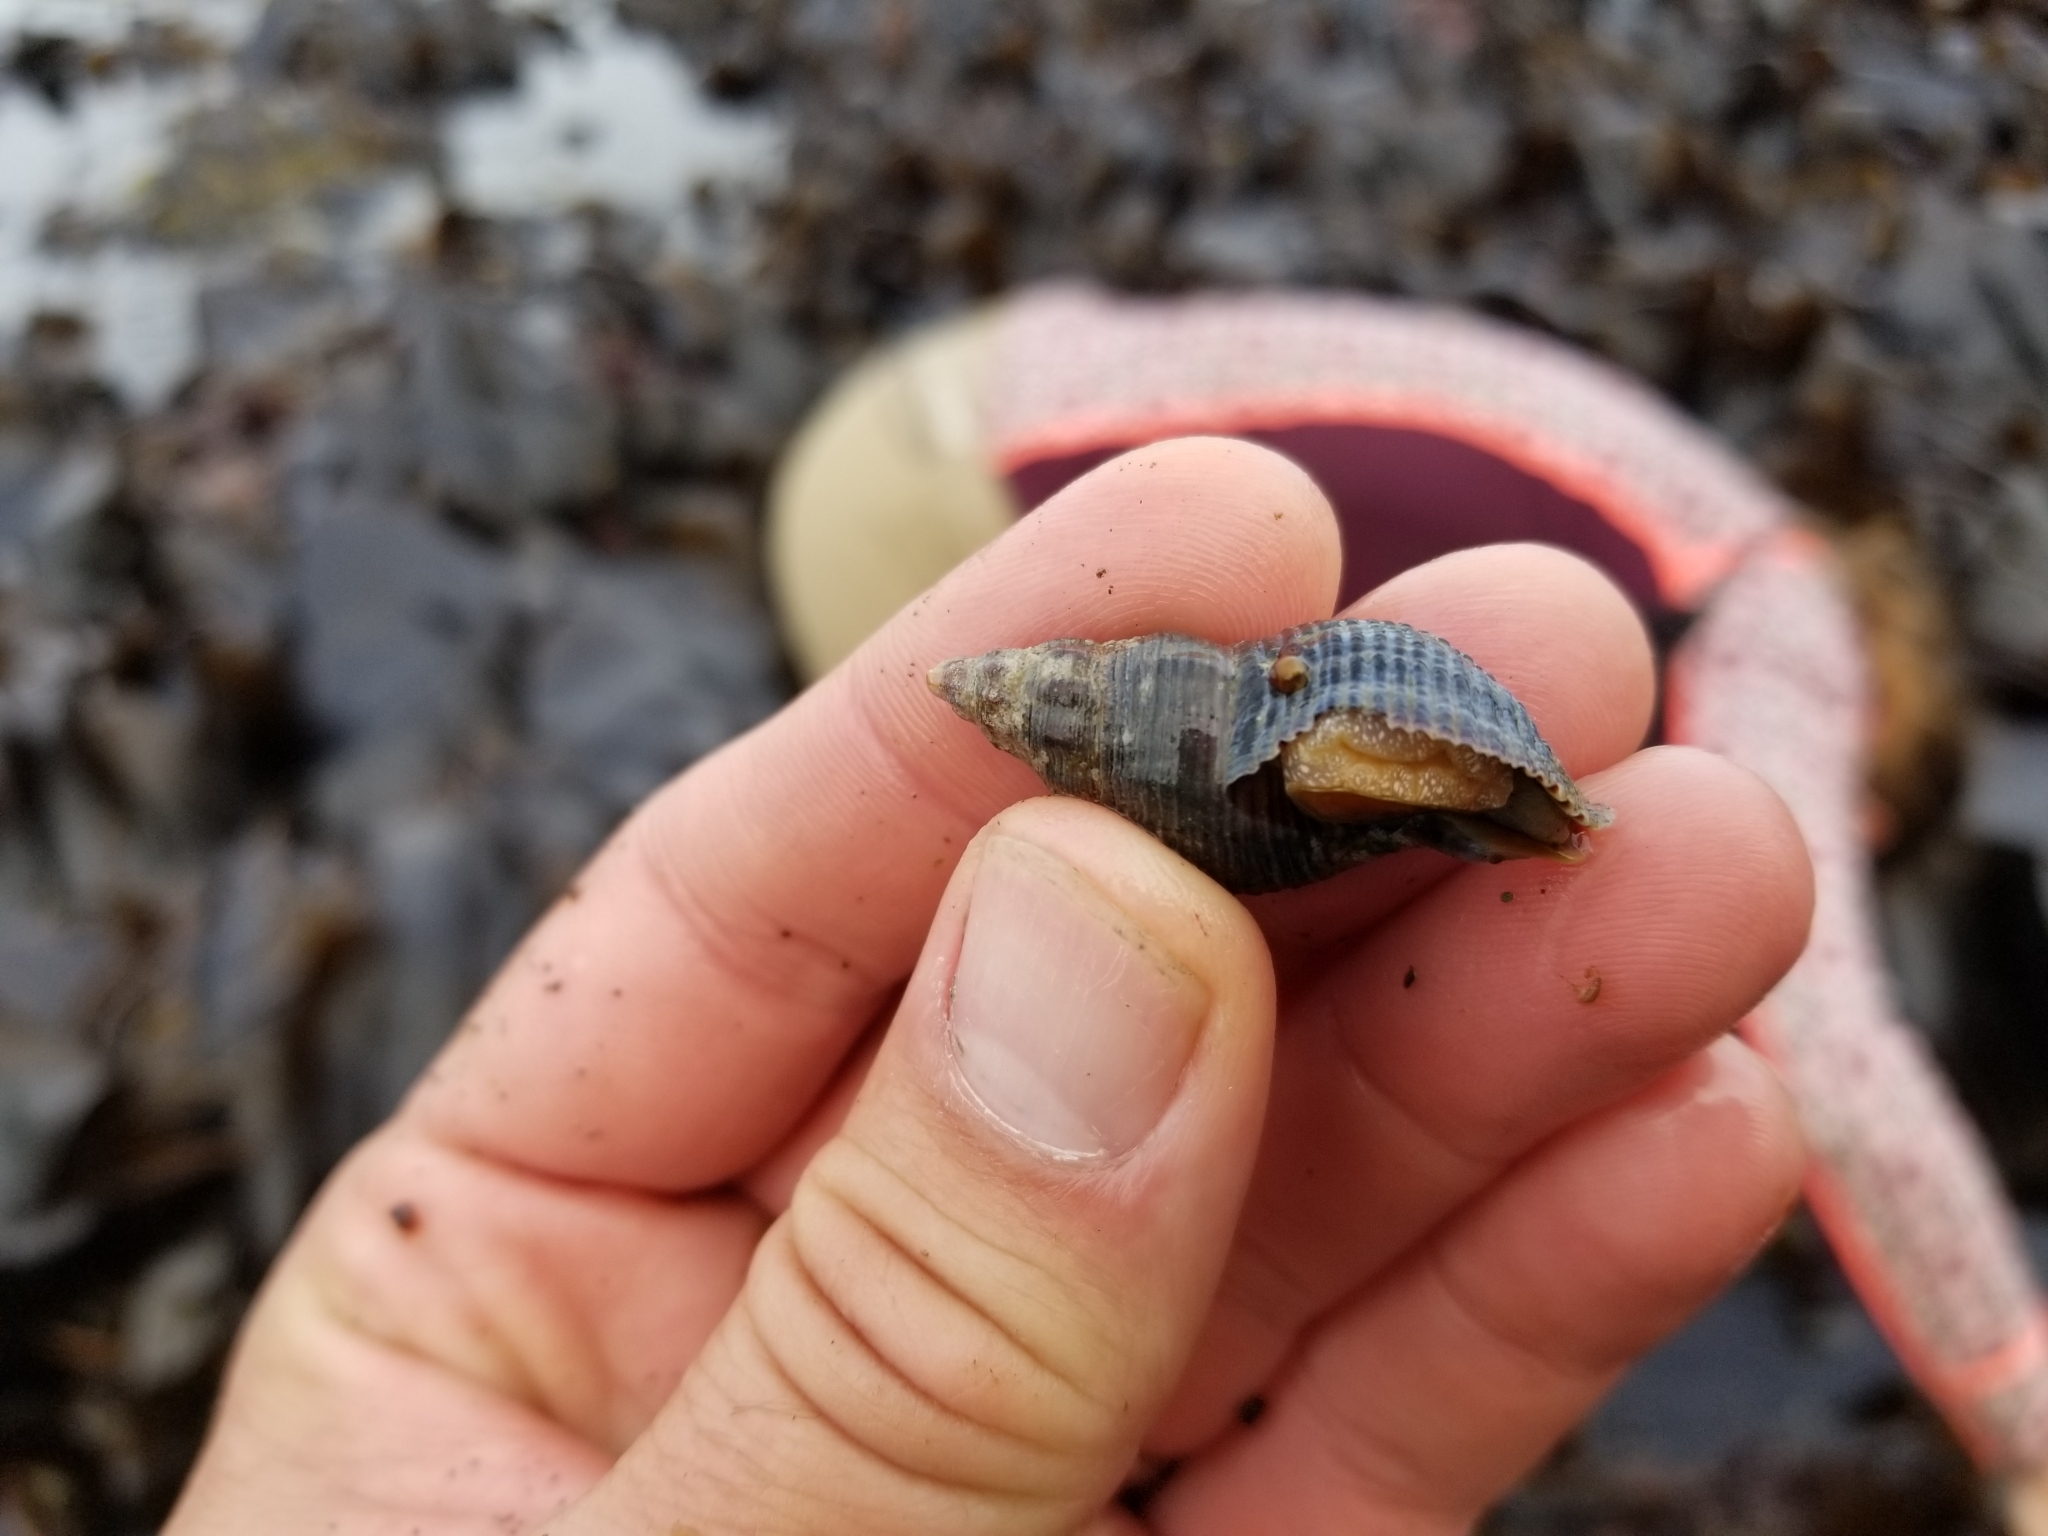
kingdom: Animalia
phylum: Mollusca
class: Gastropoda
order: Neogastropoda
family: Tudiclidae
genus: Lirabuccinum
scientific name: Lirabuccinum dirum
